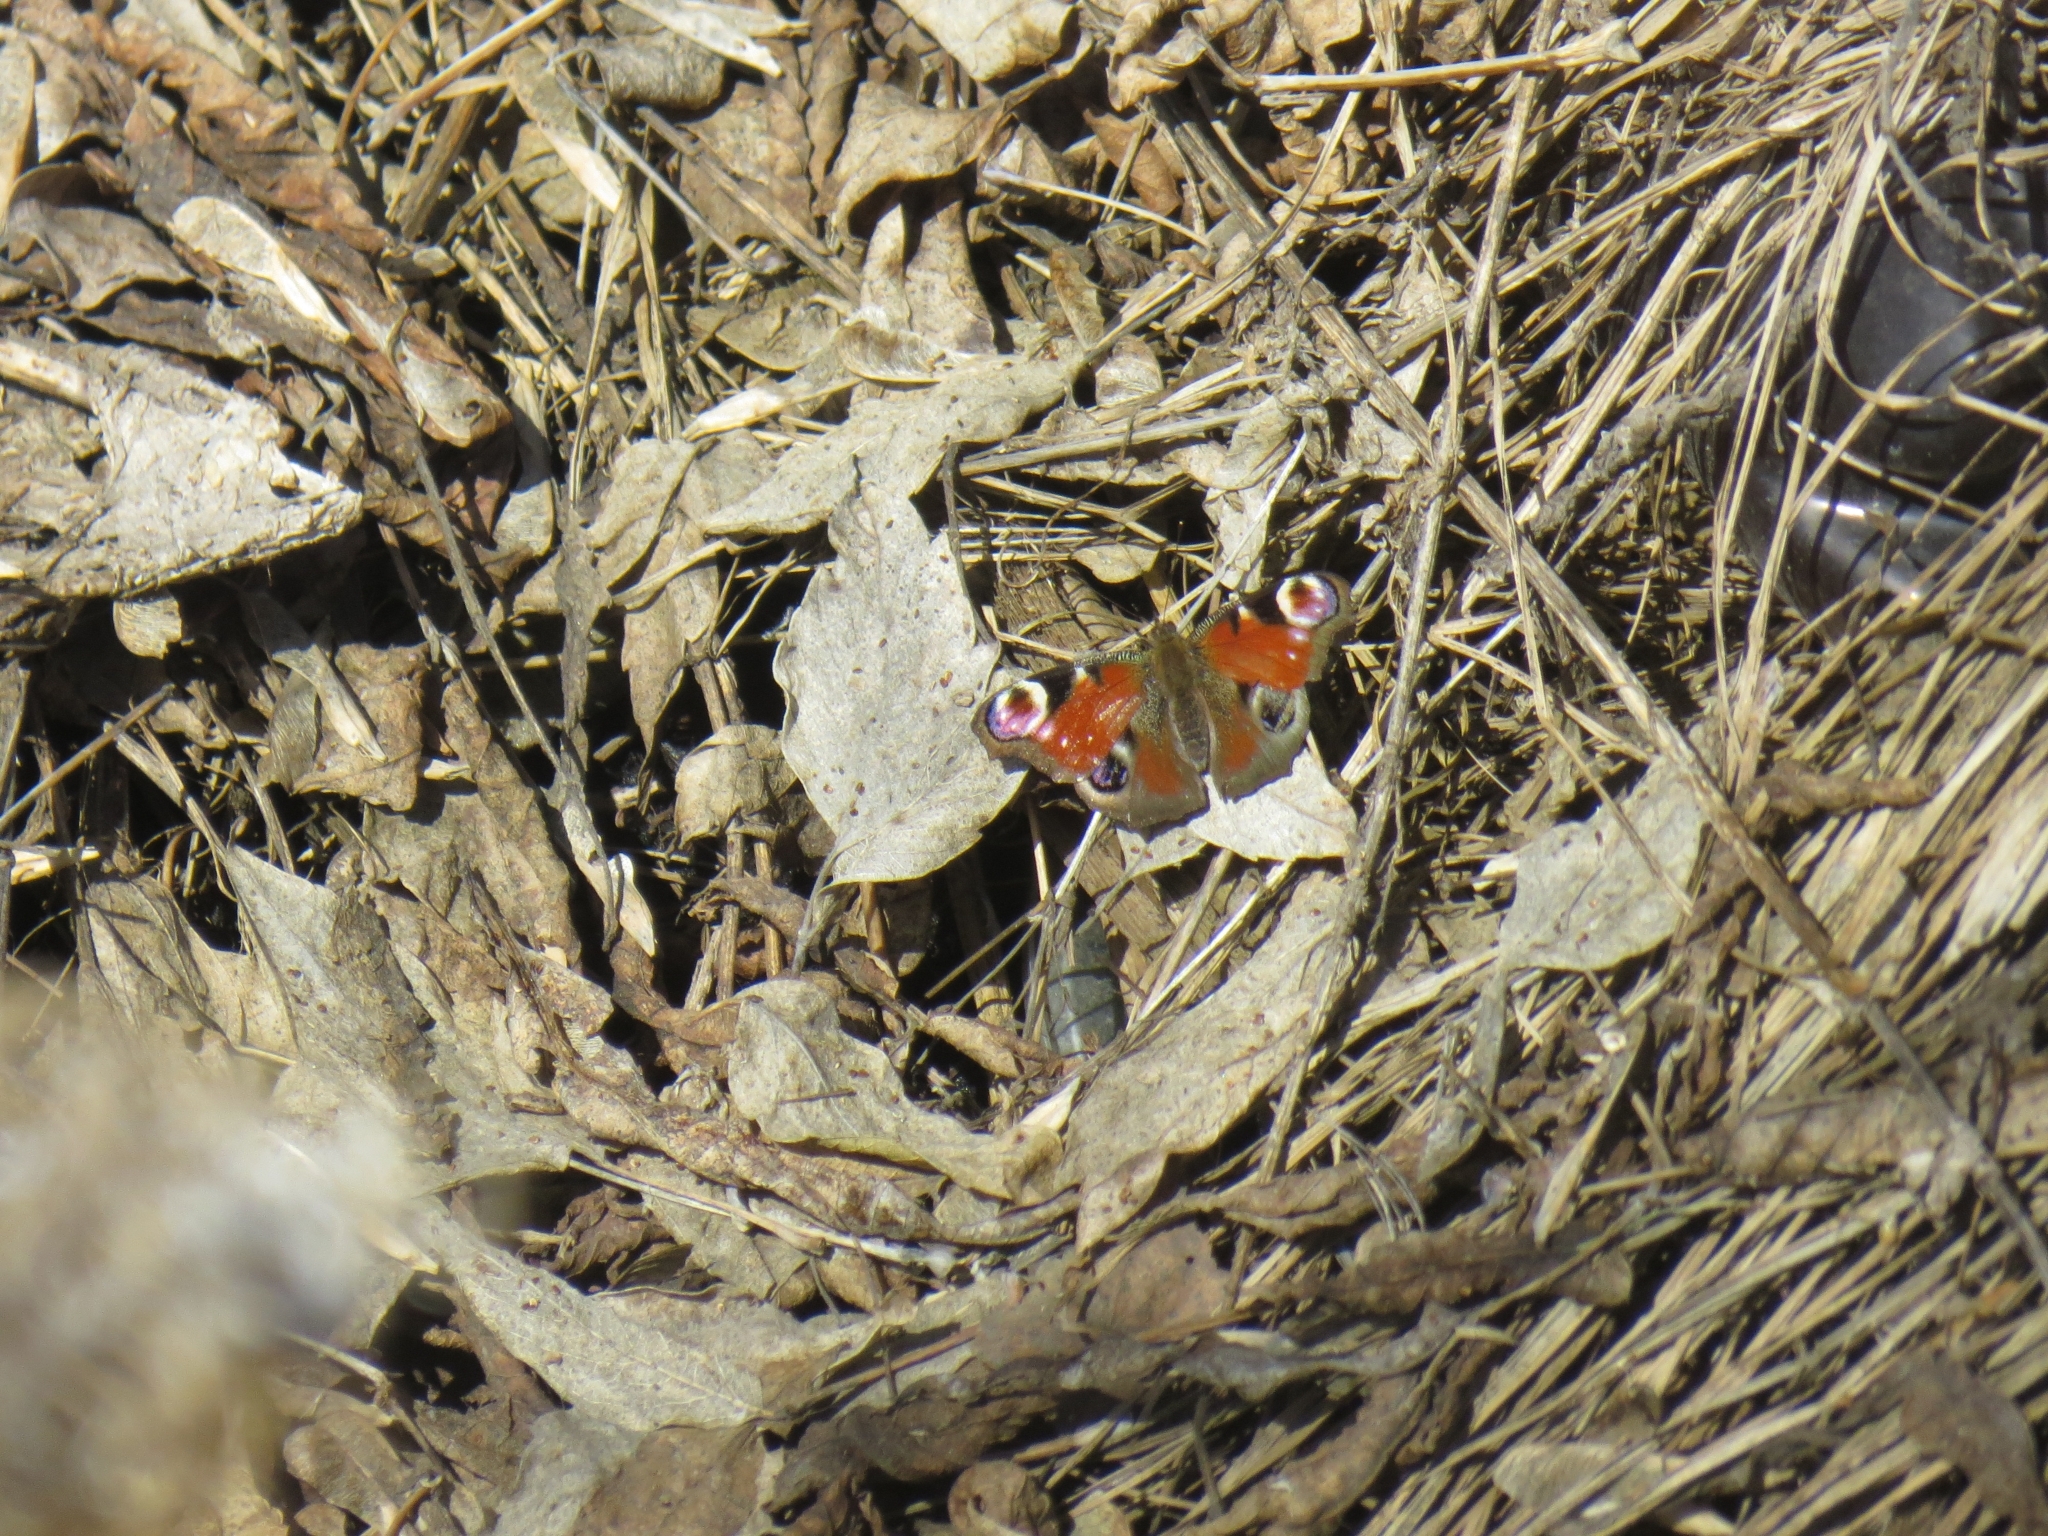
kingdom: Animalia
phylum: Arthropoda
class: Insecta
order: Lepidoptera
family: Nymphalidae
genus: Aglais
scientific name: Aglais io
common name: Peacock
